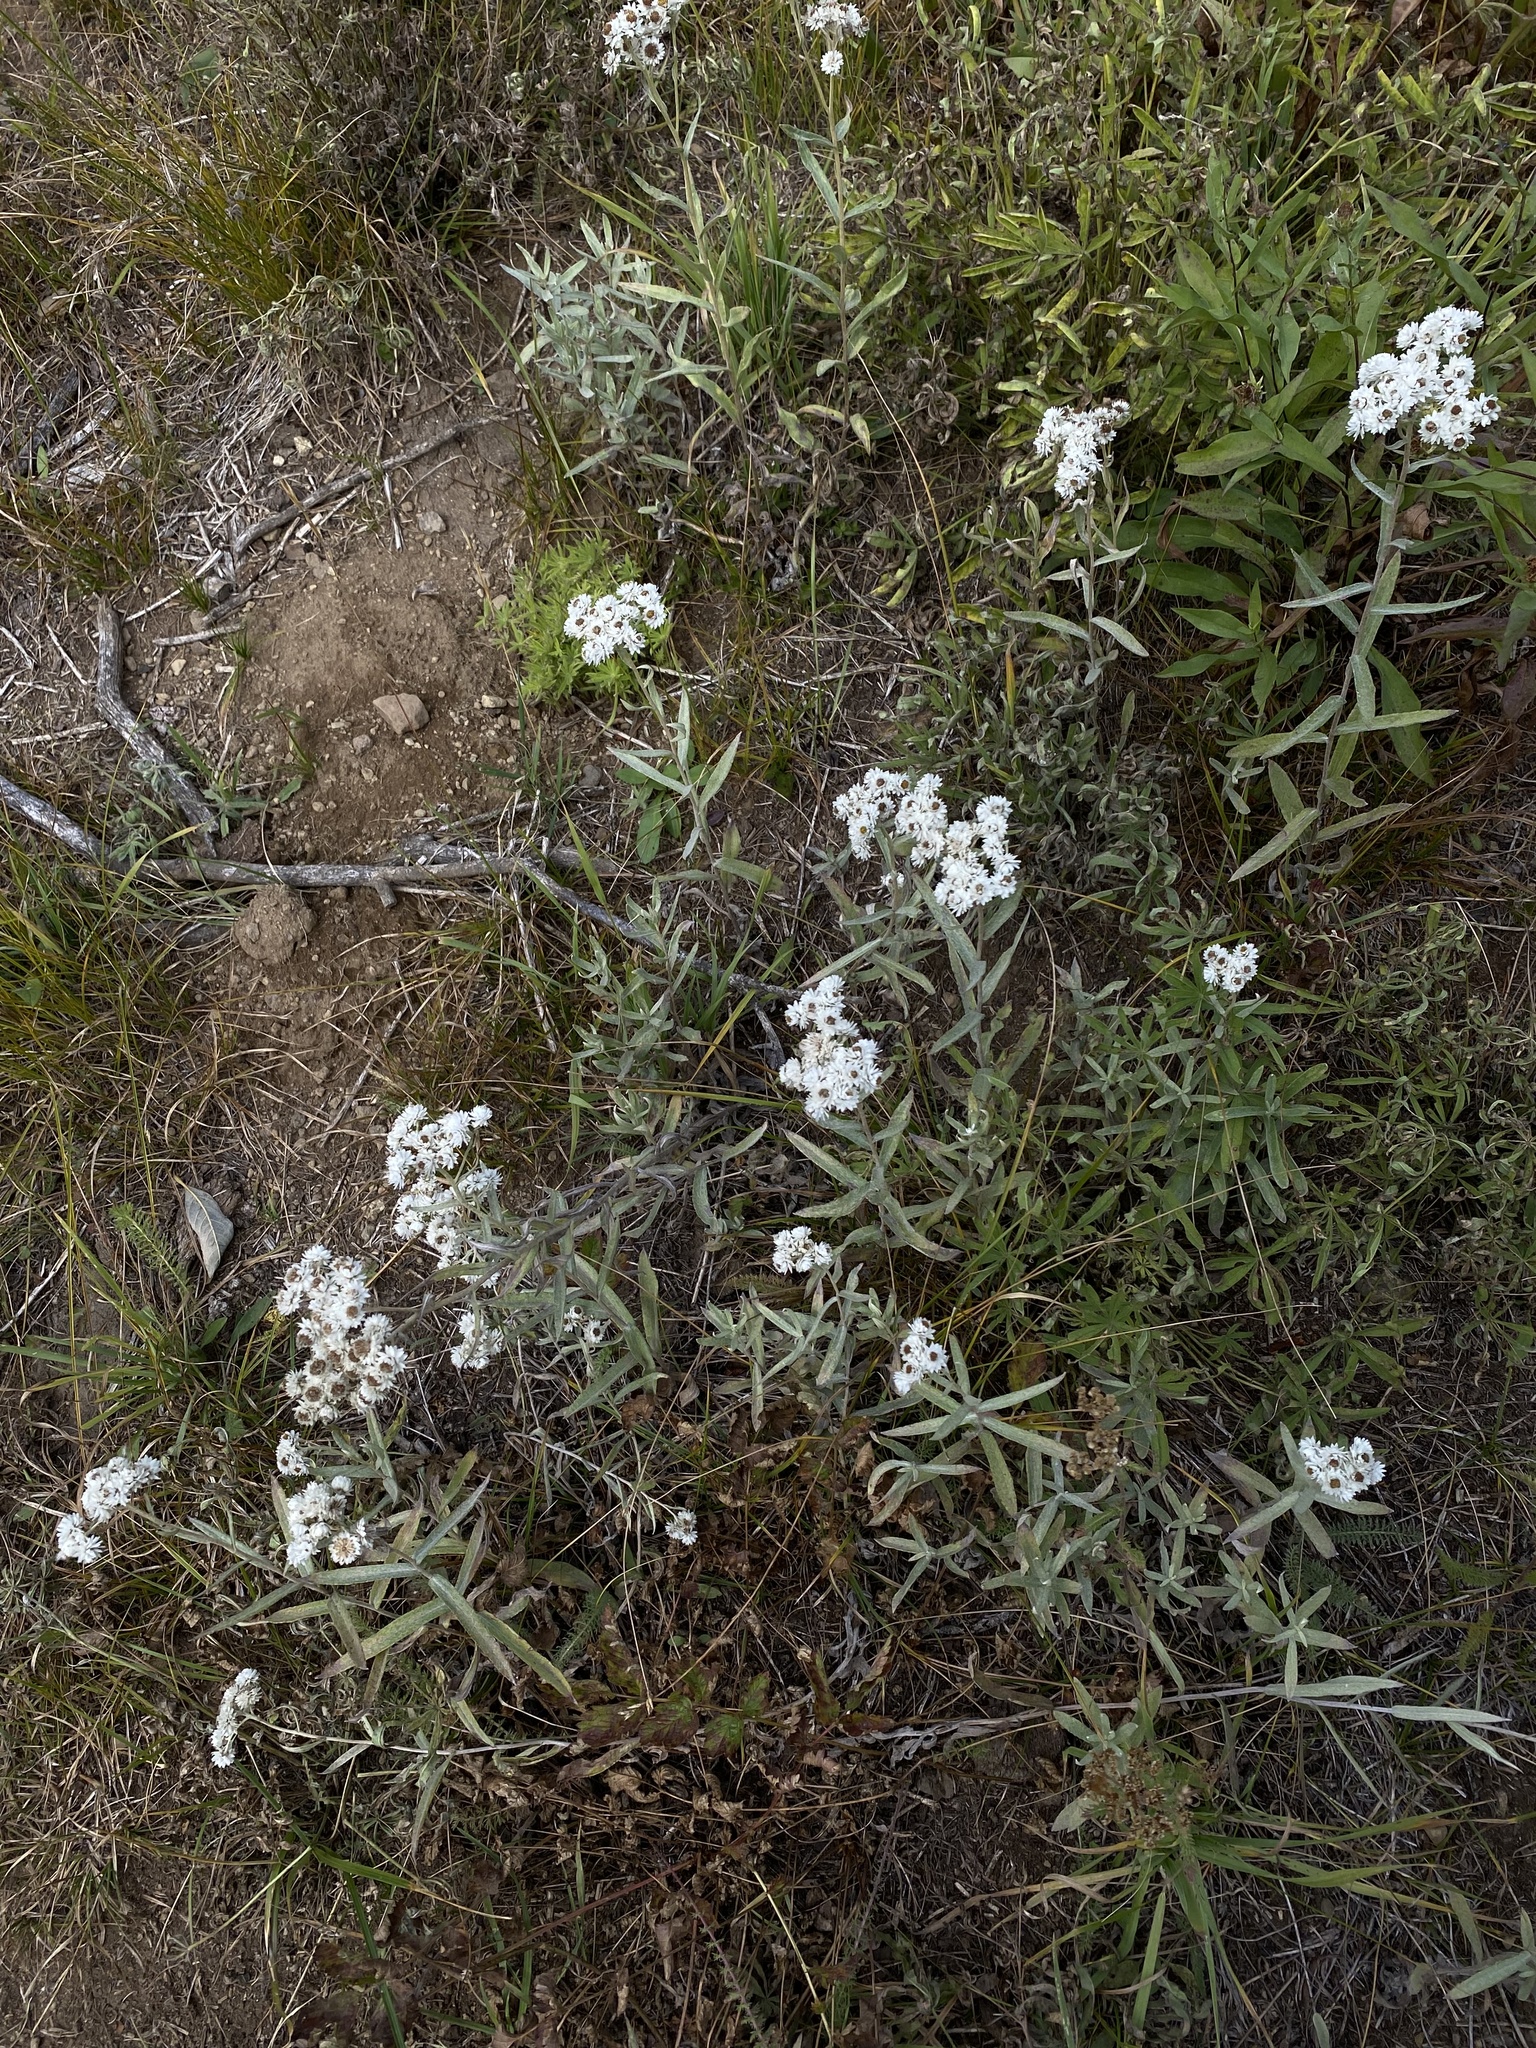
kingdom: Plantae
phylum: Tracheophyta
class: Magnoliopsida
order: Asterales
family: Asteraceae
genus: Anaphalis
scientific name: Anaphalis margaritacea
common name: Pearly everlasting
